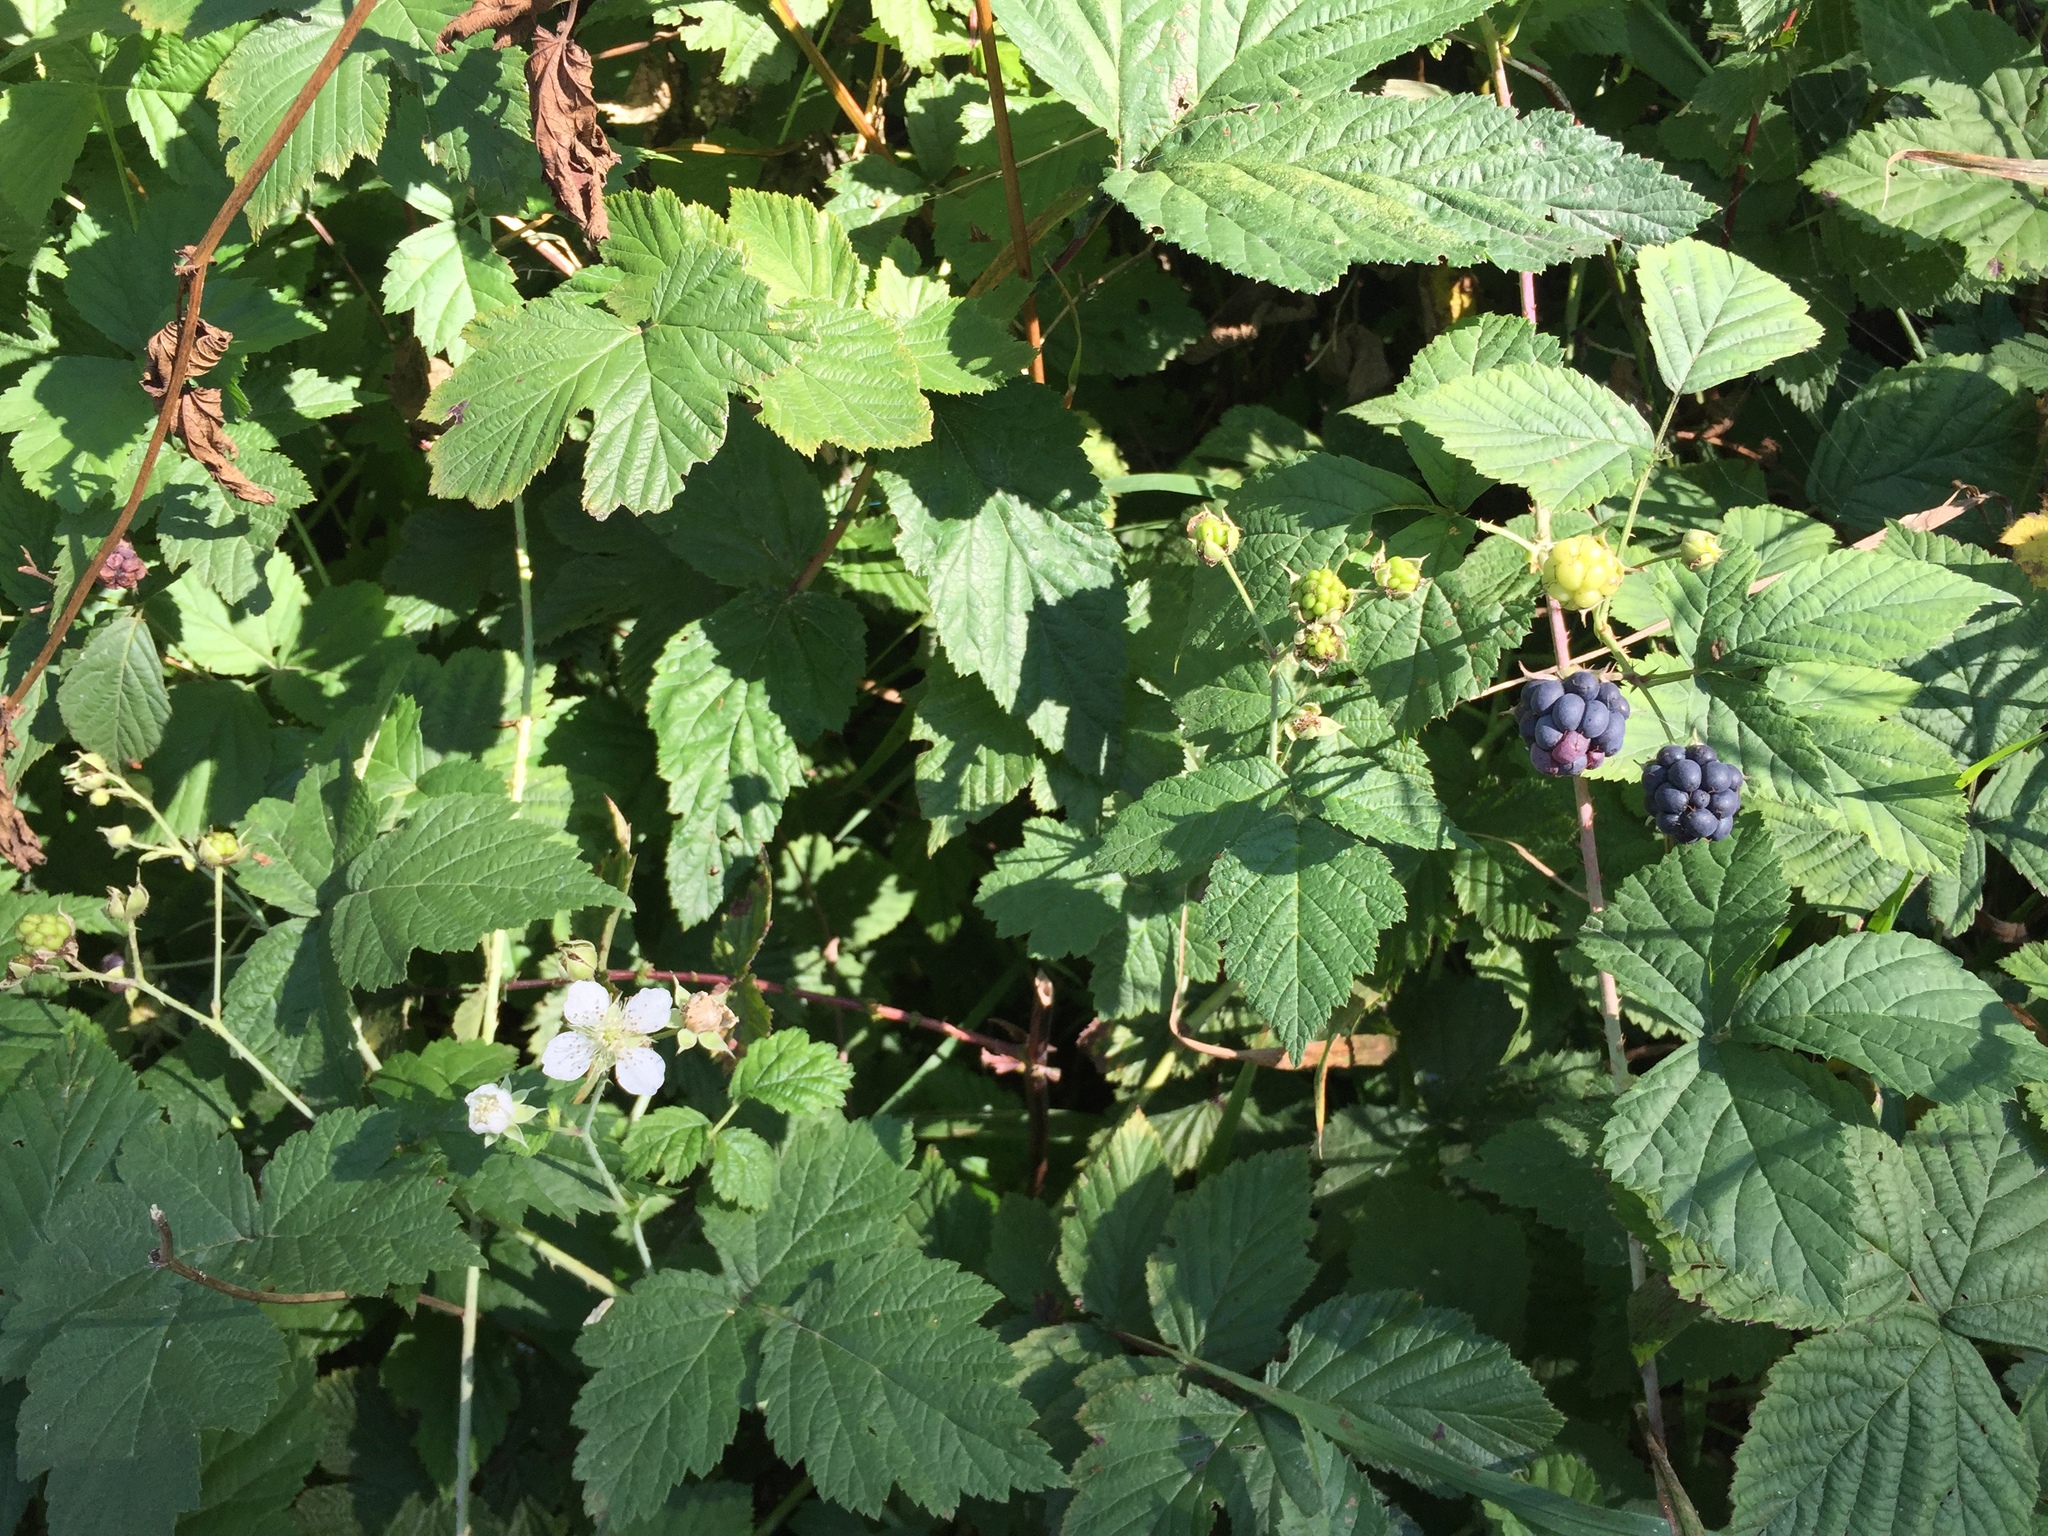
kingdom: Plantae
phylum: Tracheophyta
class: Magnoliopsida
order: Rosales
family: Rosaceae
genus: Rubus
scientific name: Rubus caesius
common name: Dewberry
